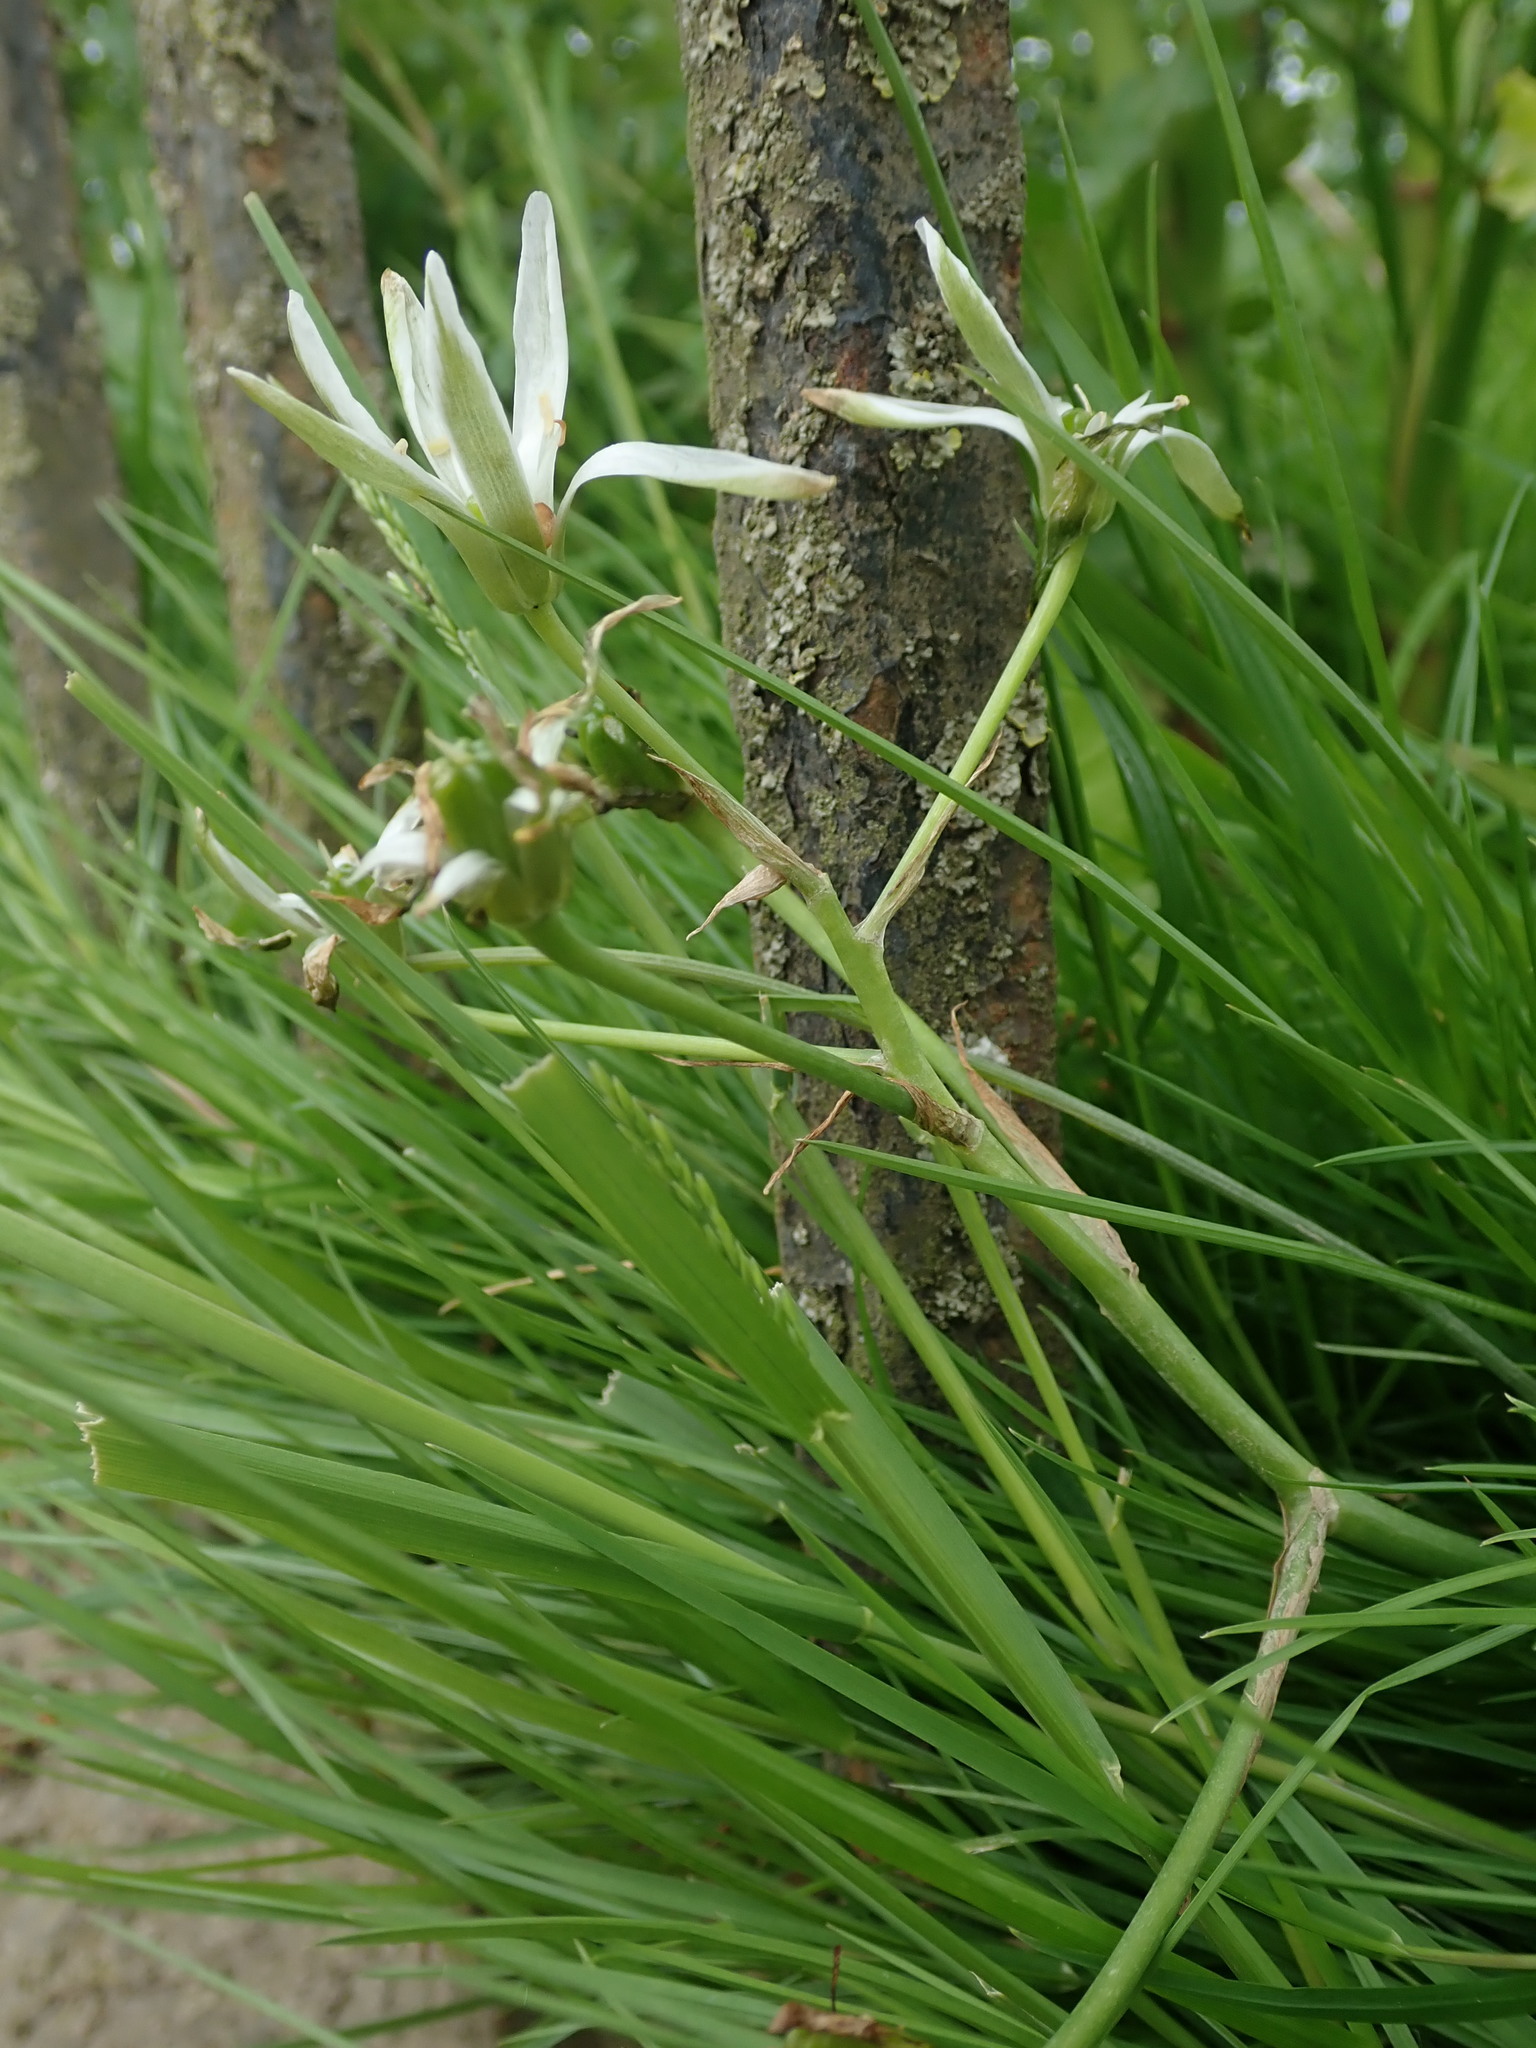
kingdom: Plantae
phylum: Tracheophyta
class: Liliopsida
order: Asparagales
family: Asparagaceae
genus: Ornithogalum
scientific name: Ornithogalum umbellatum
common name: Garden star-of-bethlehem
